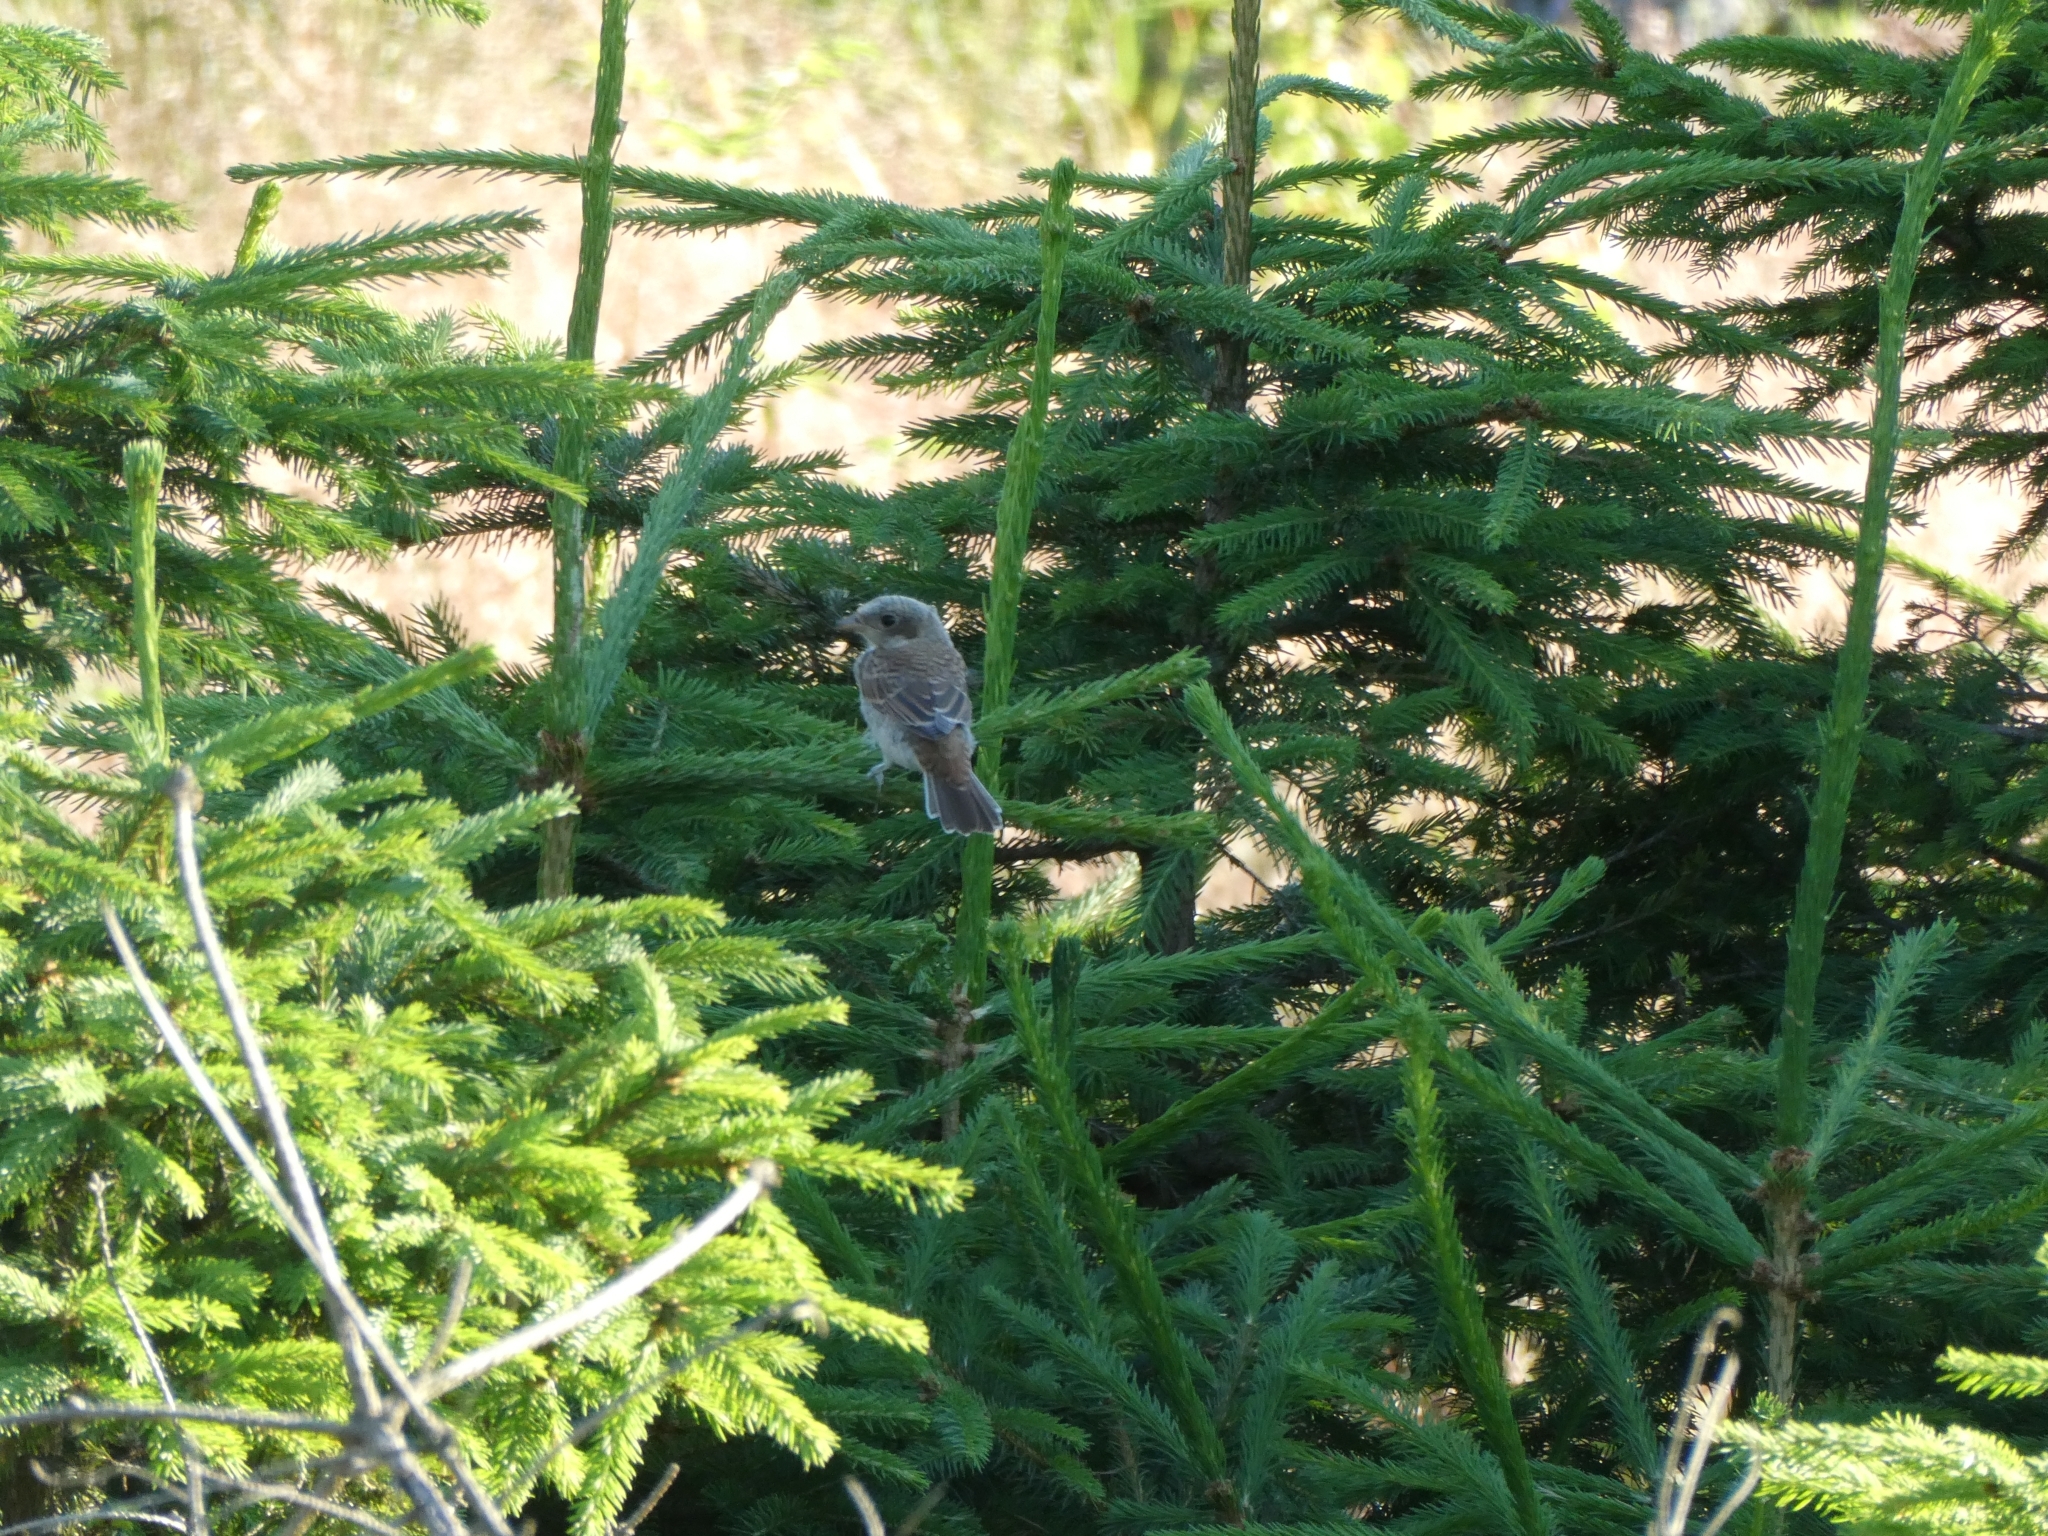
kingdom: Animalia
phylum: Chordata
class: Aves
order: Passeriformes
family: Laniidae
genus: Lanius
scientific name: Lanius collurio
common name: Red-backed shrike
